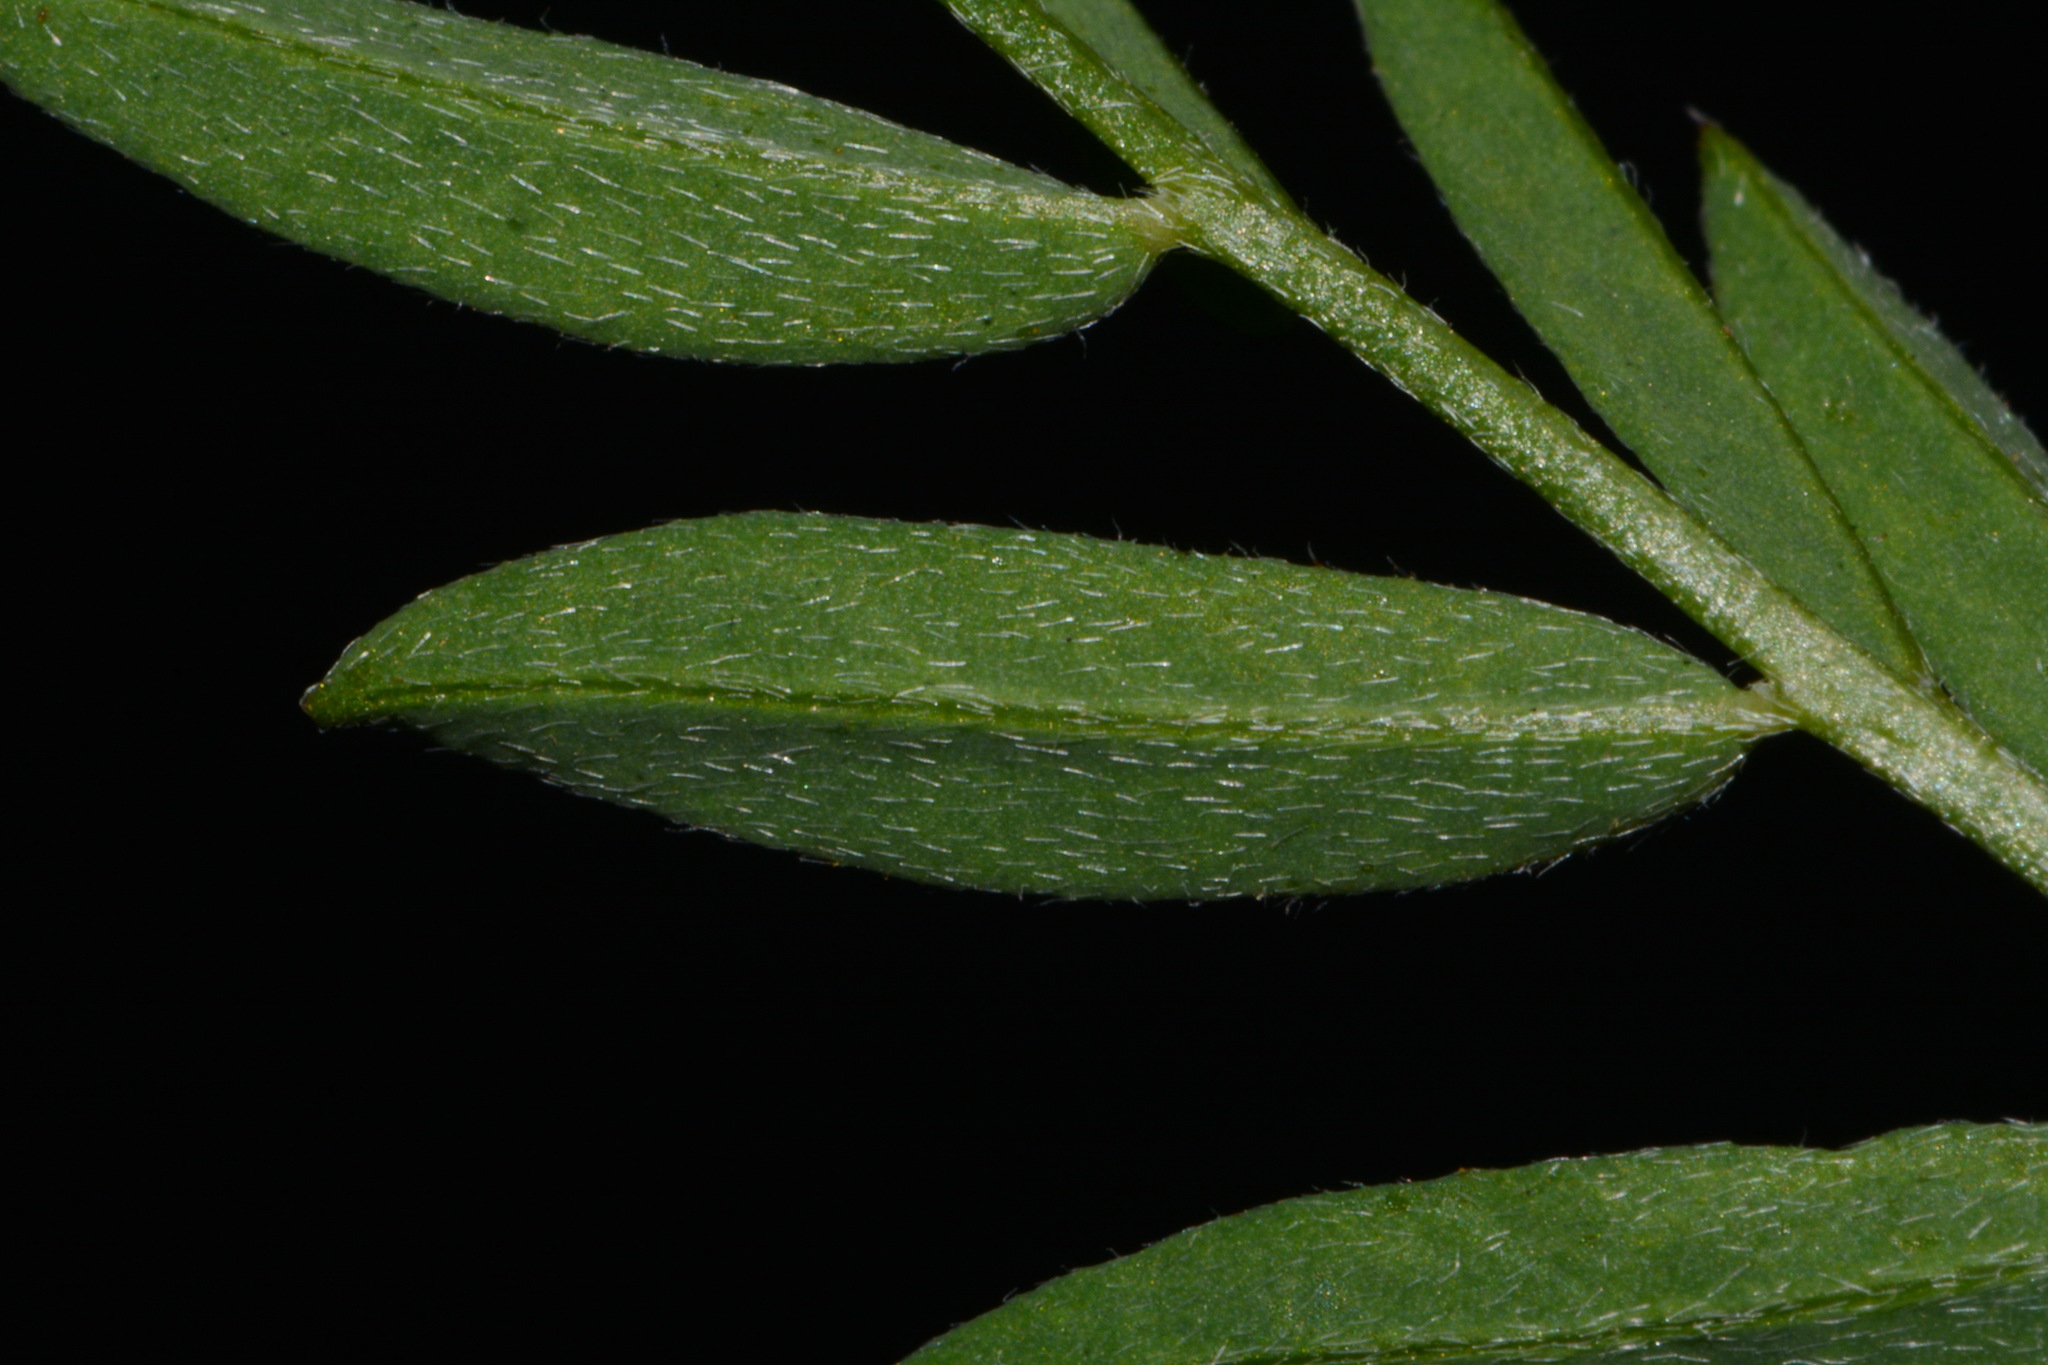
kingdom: Plantae
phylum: Tracheophyta
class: Magnoliopsida
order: Fabales
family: Fabaceae
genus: Astragalus
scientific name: Astragalus miser
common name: Timber milkvetch
